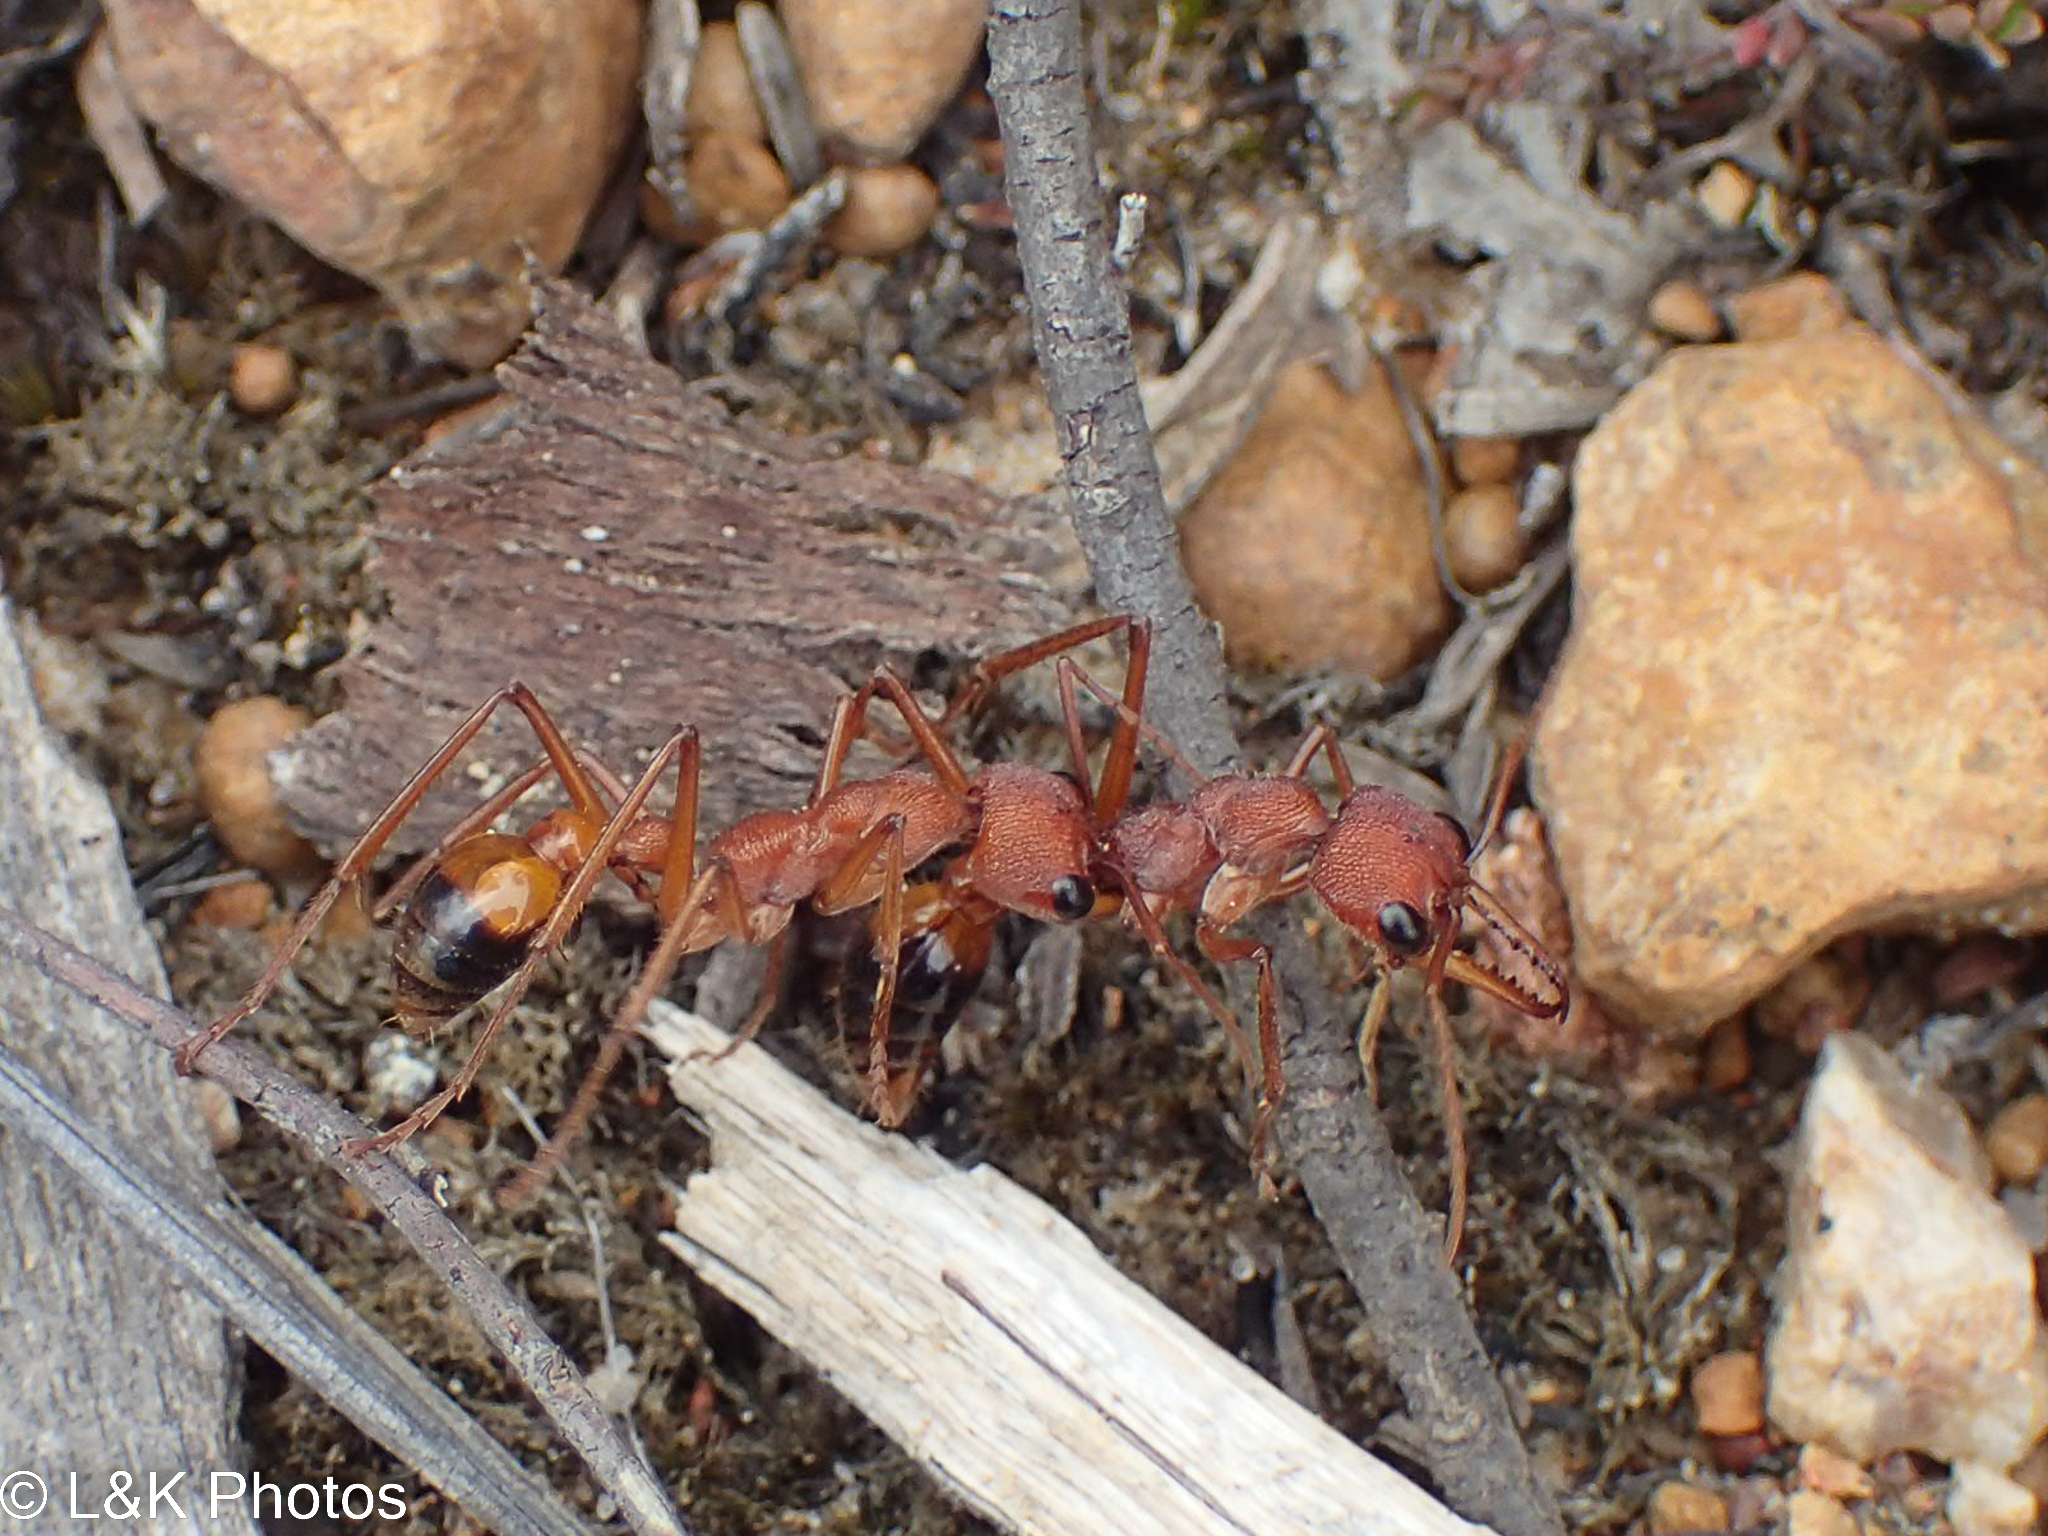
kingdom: Animalia
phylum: Arthropoda
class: Insecta
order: Hymenoptera
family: Formicidae
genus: Myrmecia
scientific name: Myrmecia nigriscapa
